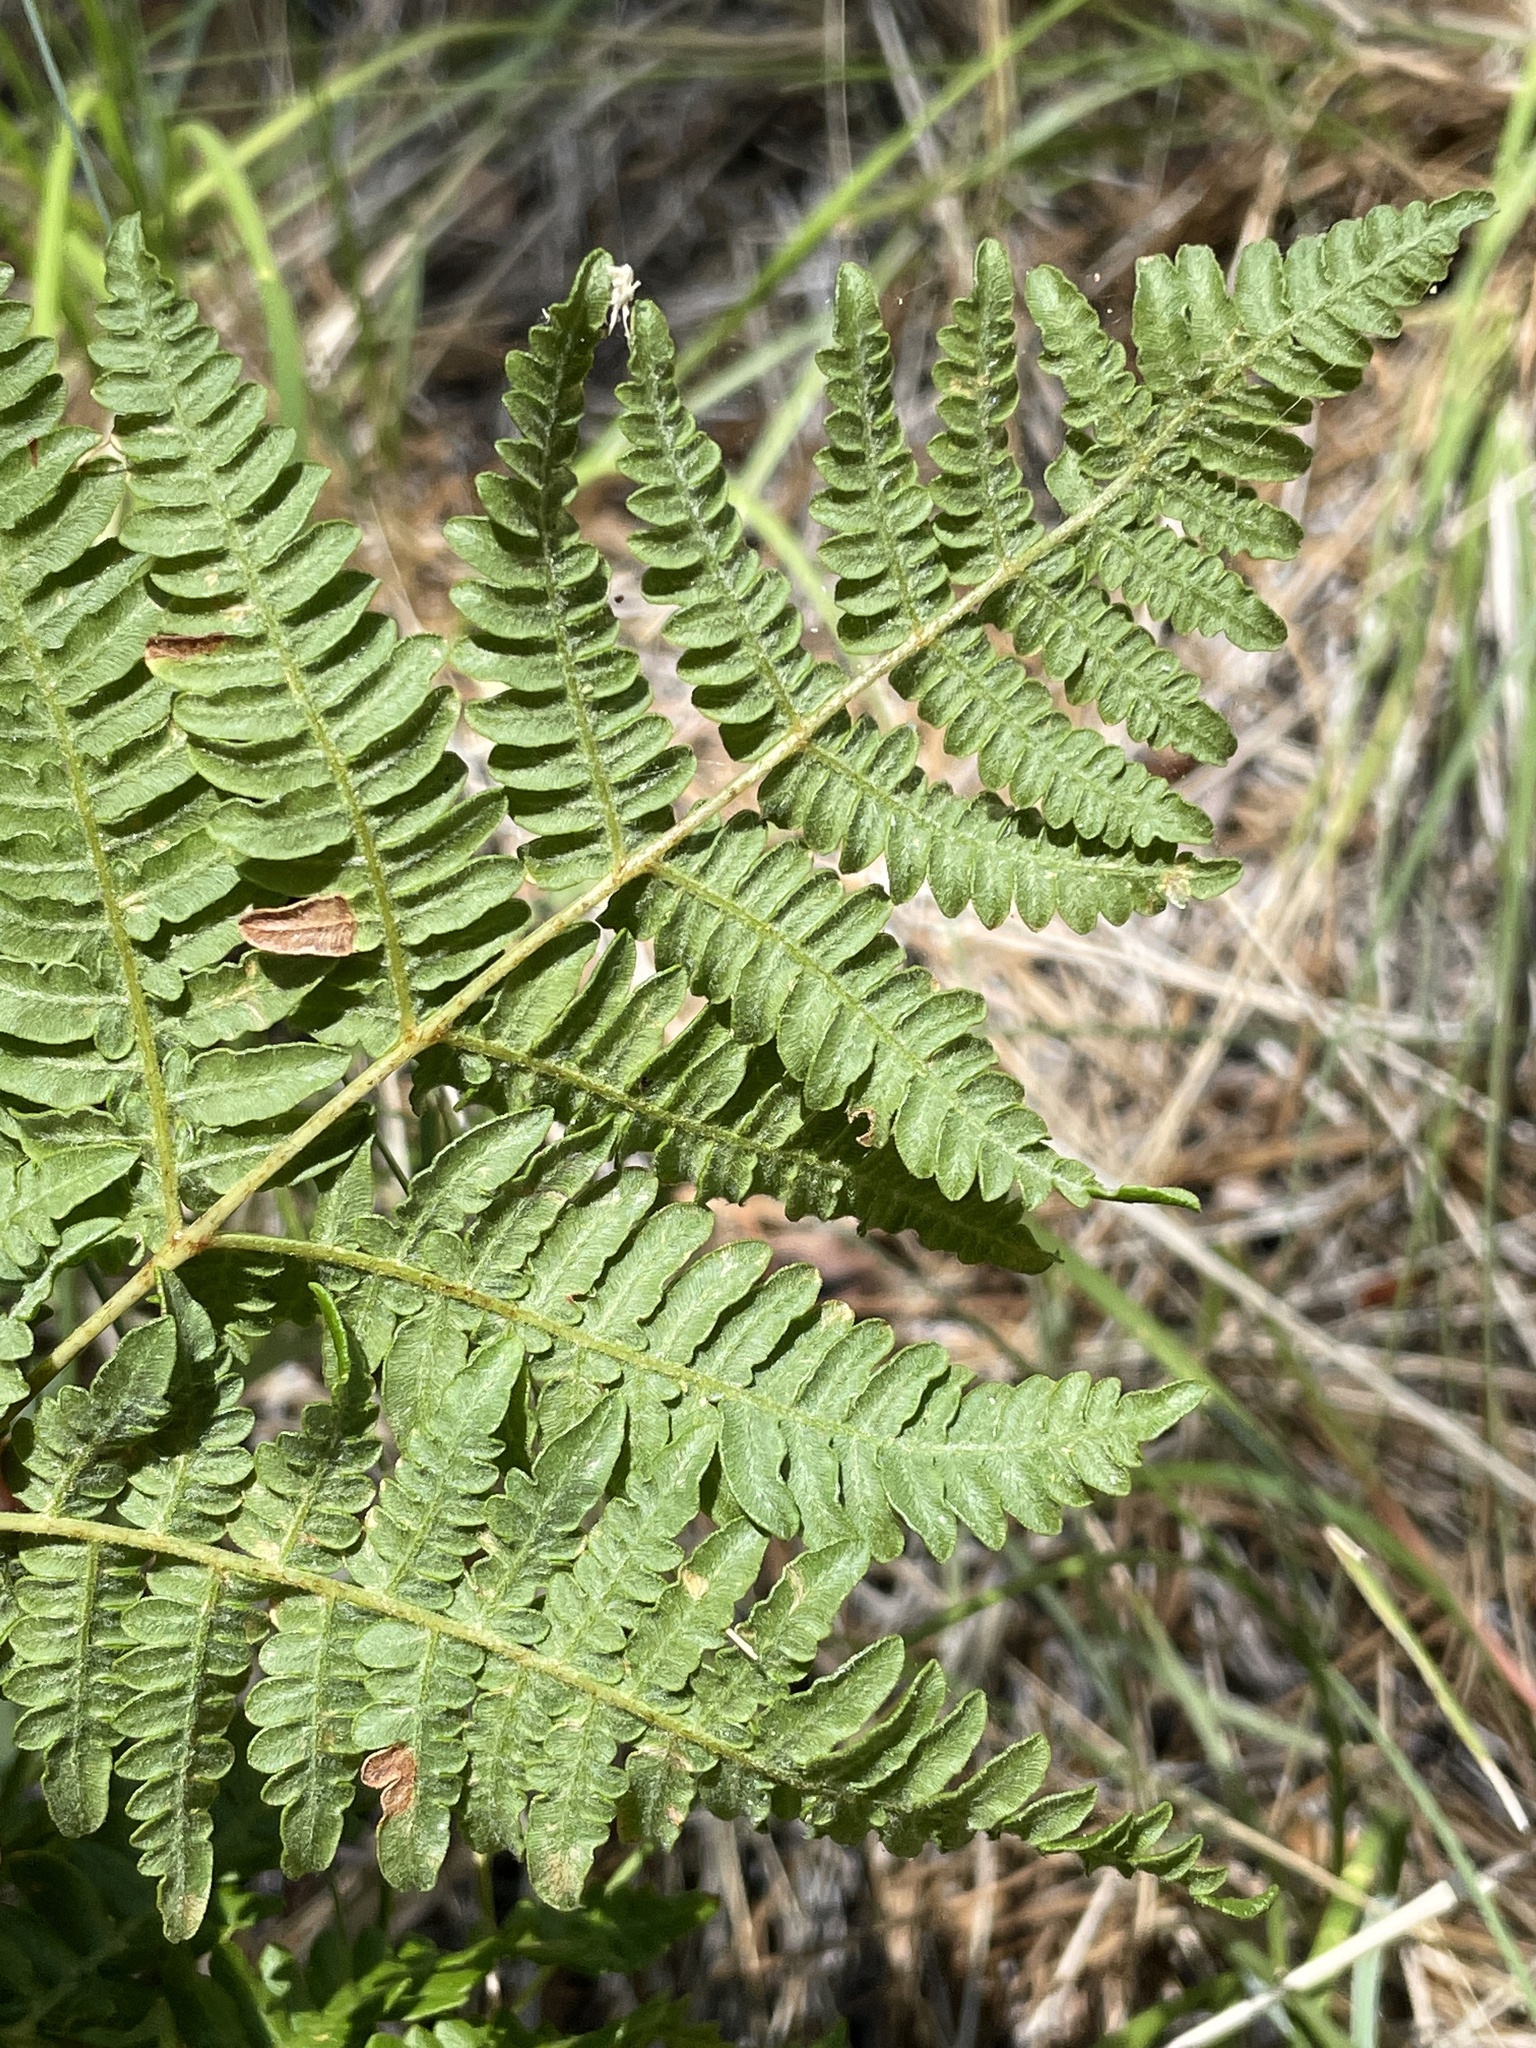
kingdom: Plantae
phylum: Tracheophyta
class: Polypodiopsida
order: Polypodiales
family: Dennstaedtiaceae
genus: Pteridium
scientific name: Pteridium aquilinum
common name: Bracken
